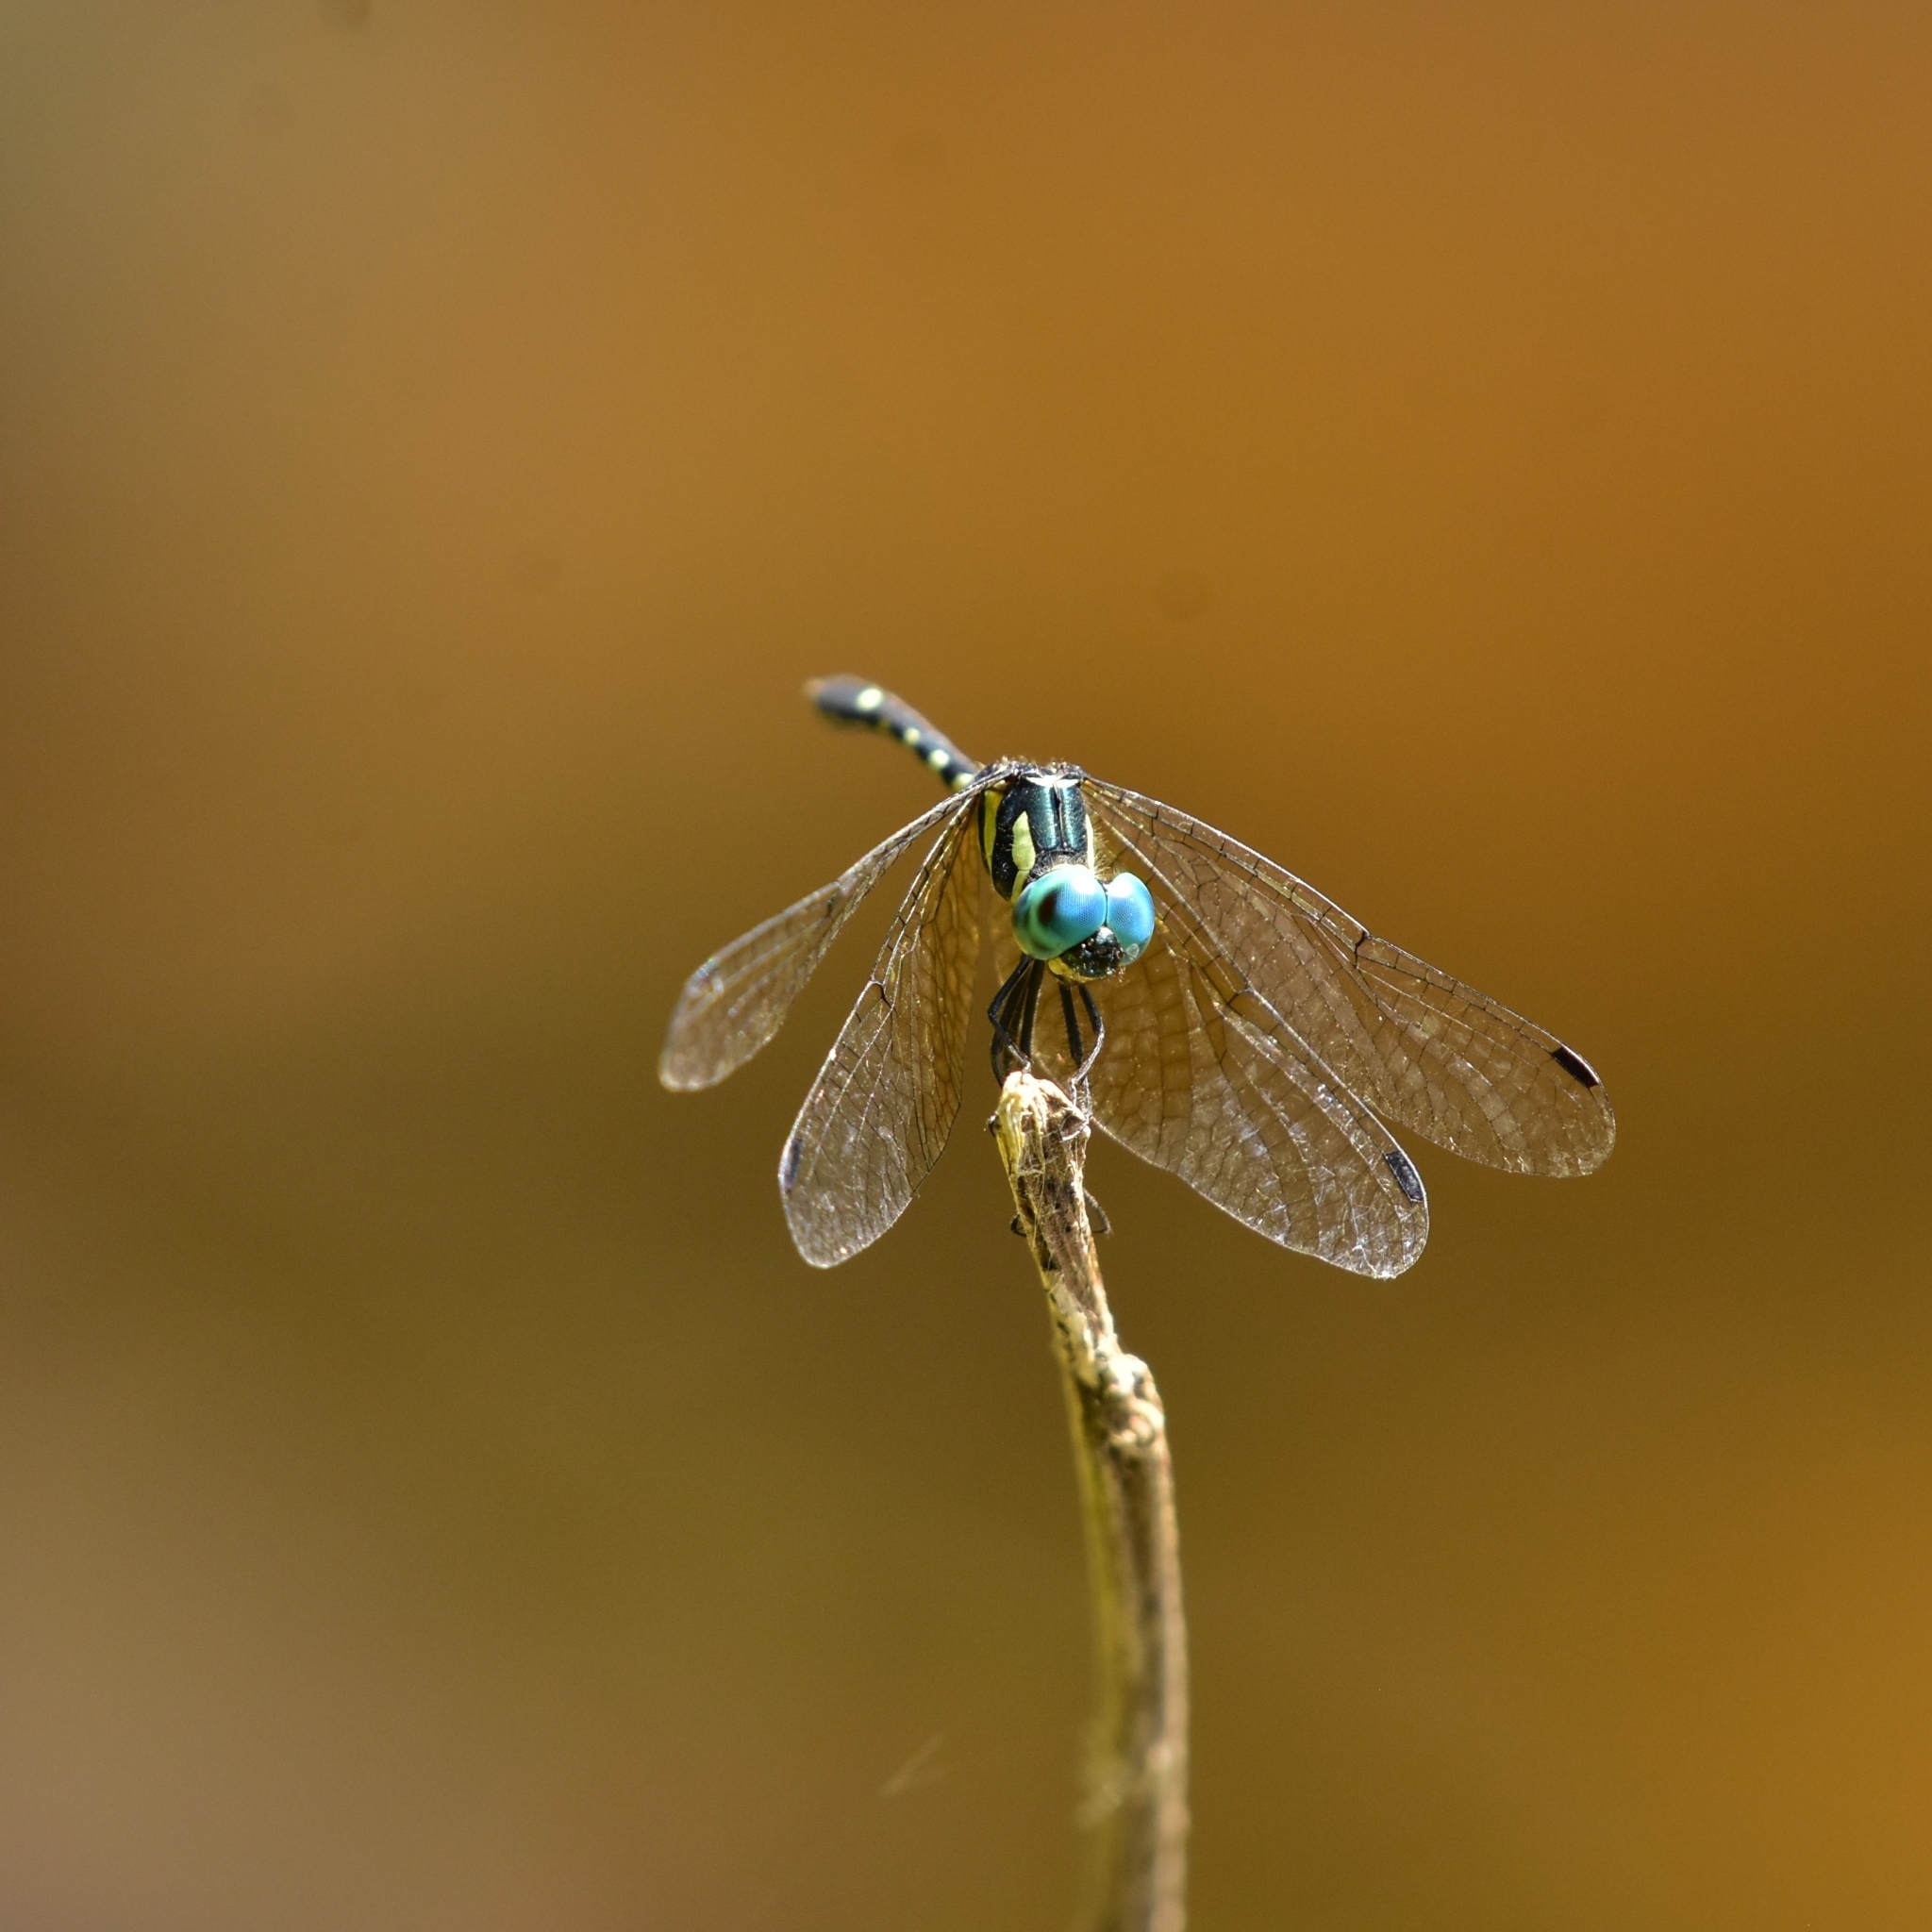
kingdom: Animalia
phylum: Arthropoda
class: Insecta
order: Odonata
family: Libellulidae
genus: Tetrathemis
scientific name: Tetrathemis platyptera
